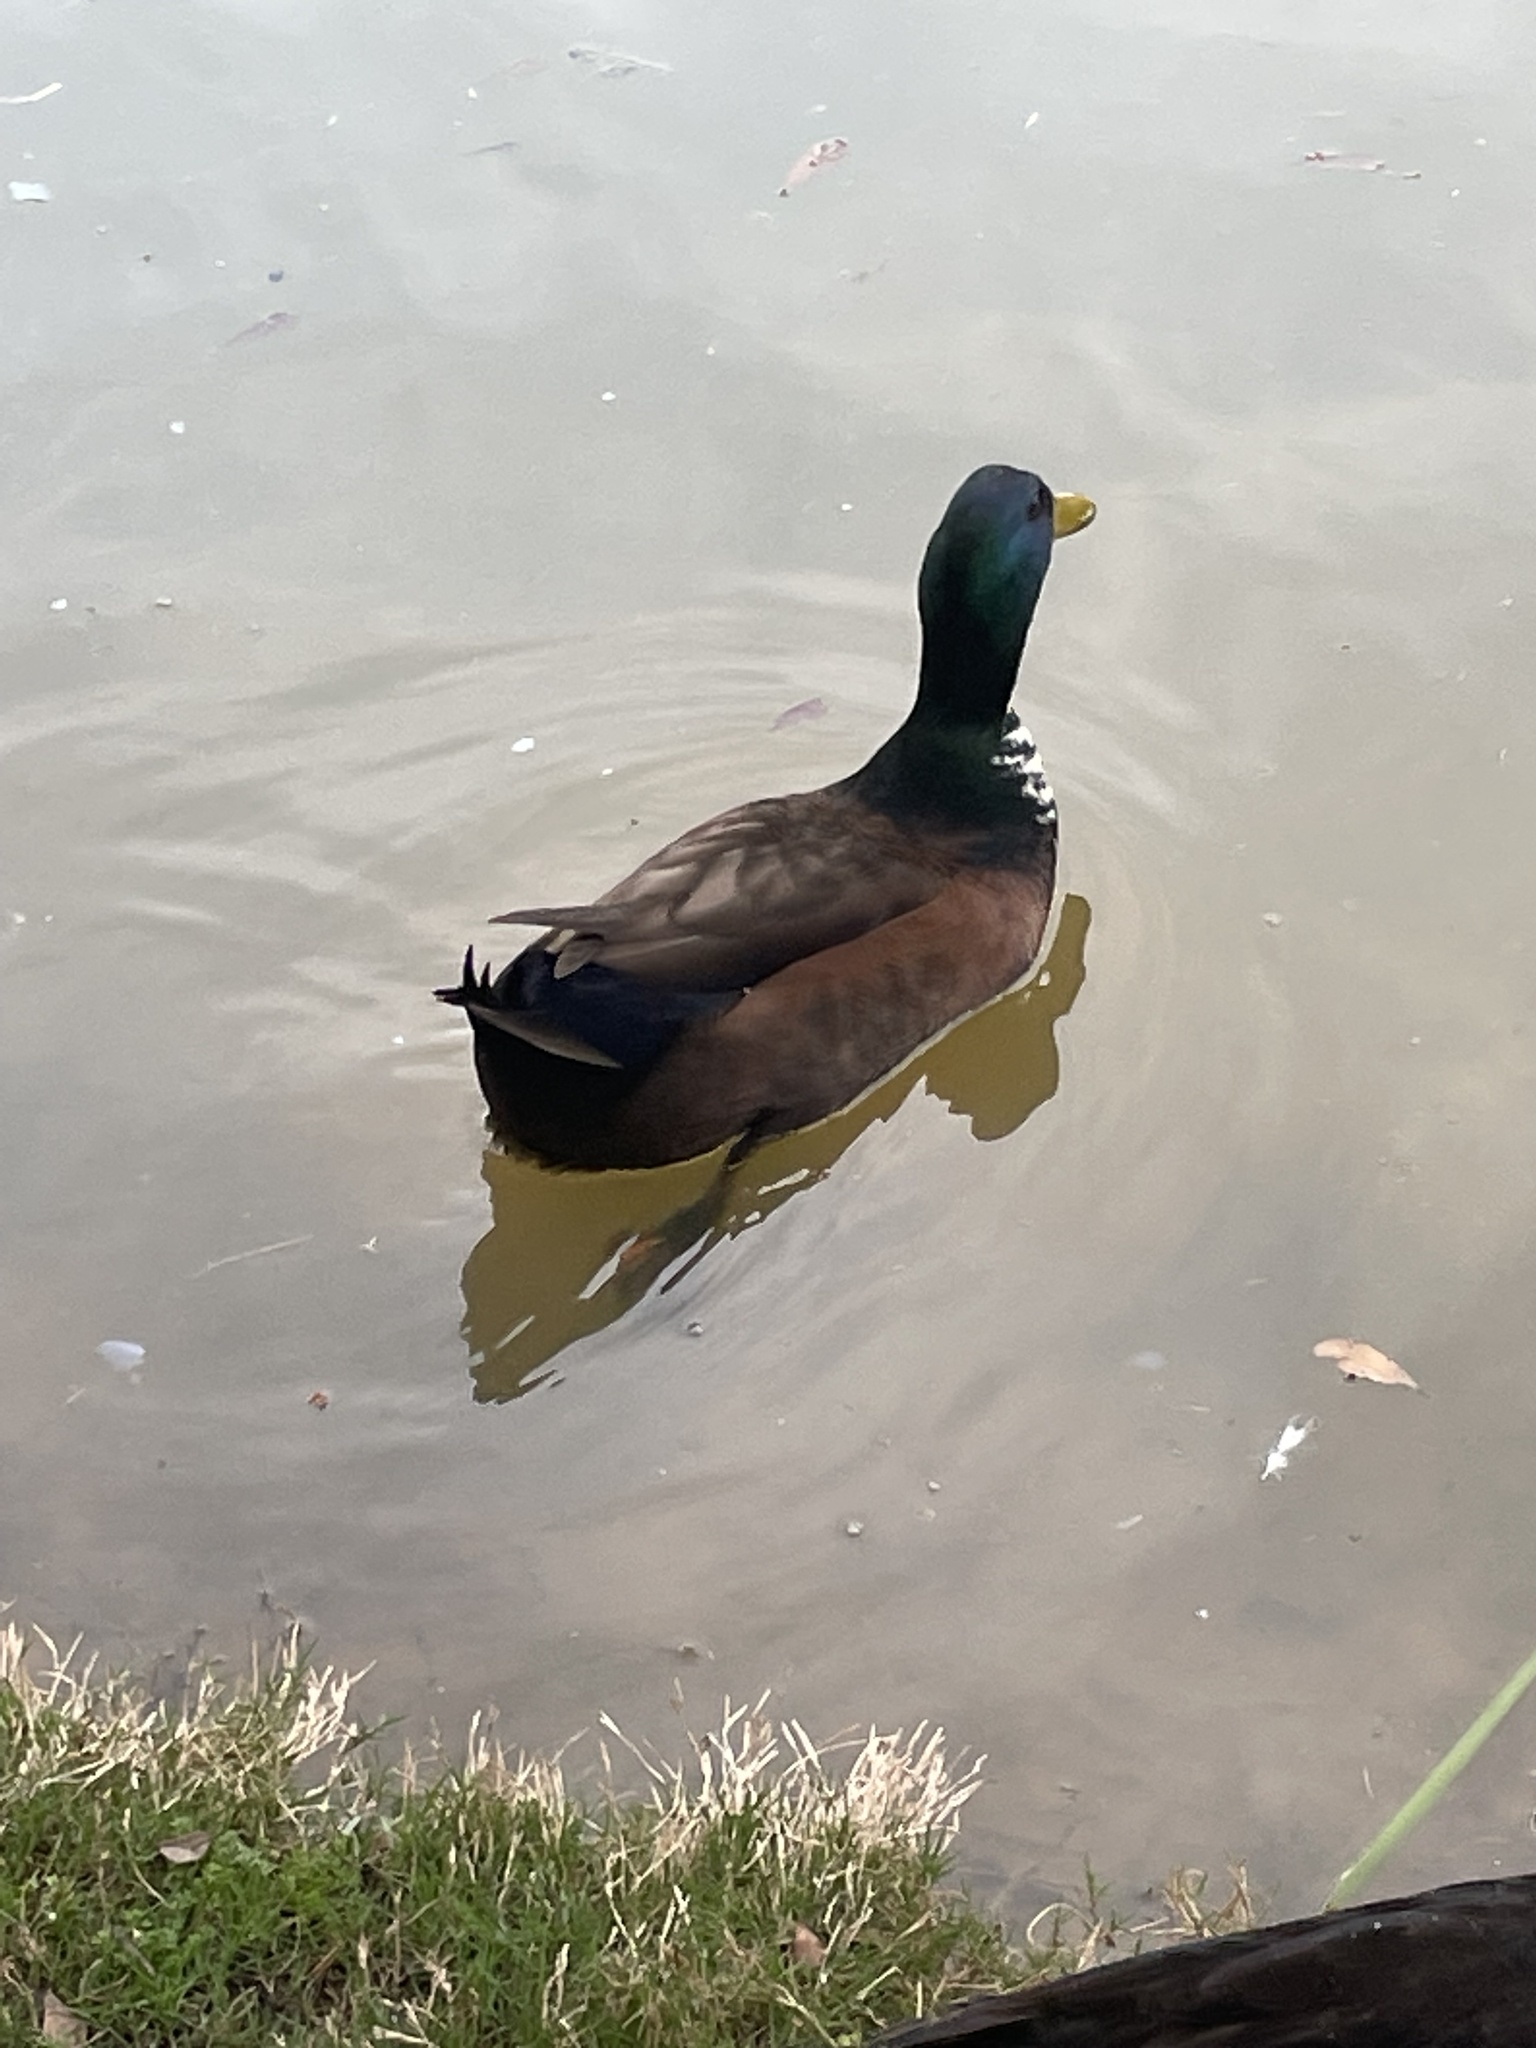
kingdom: Animalia
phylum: Chordata
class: Aves
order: Anseriformes
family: Anatidae
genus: Anas
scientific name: Anas platyrhynchos
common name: Mallard
